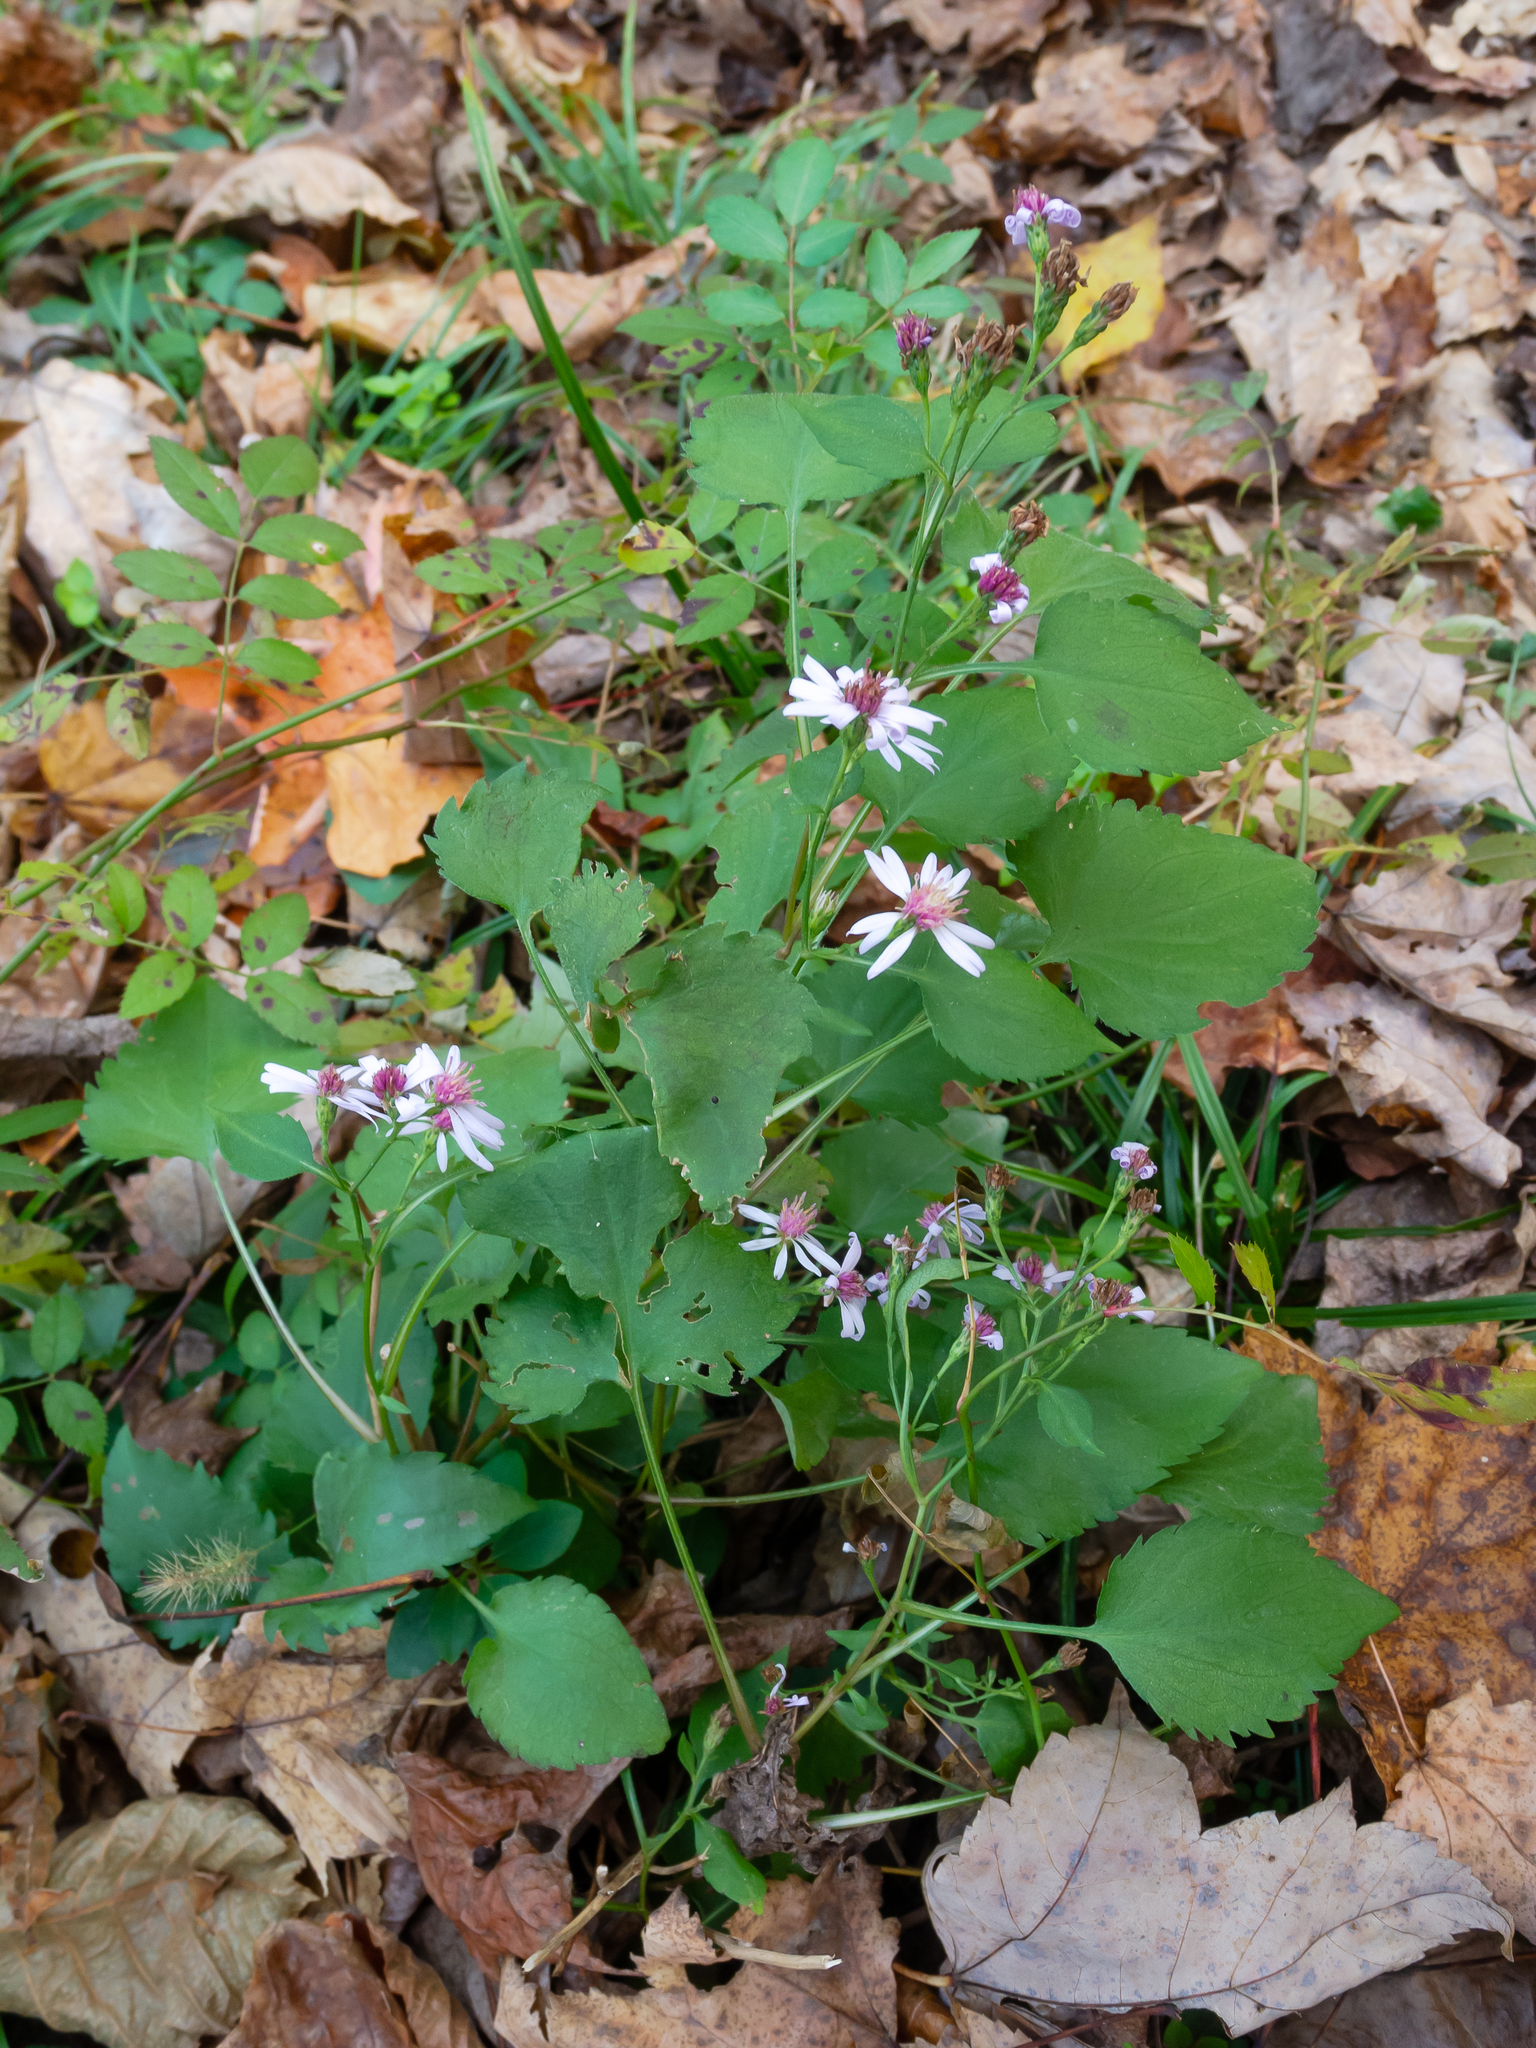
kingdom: Plantae
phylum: Tracheophyta
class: Magnoliopsida
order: Asterales
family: Asteraceae
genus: Symphyotrichum
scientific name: Symphyotrichum cordifolium
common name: Beeweed
